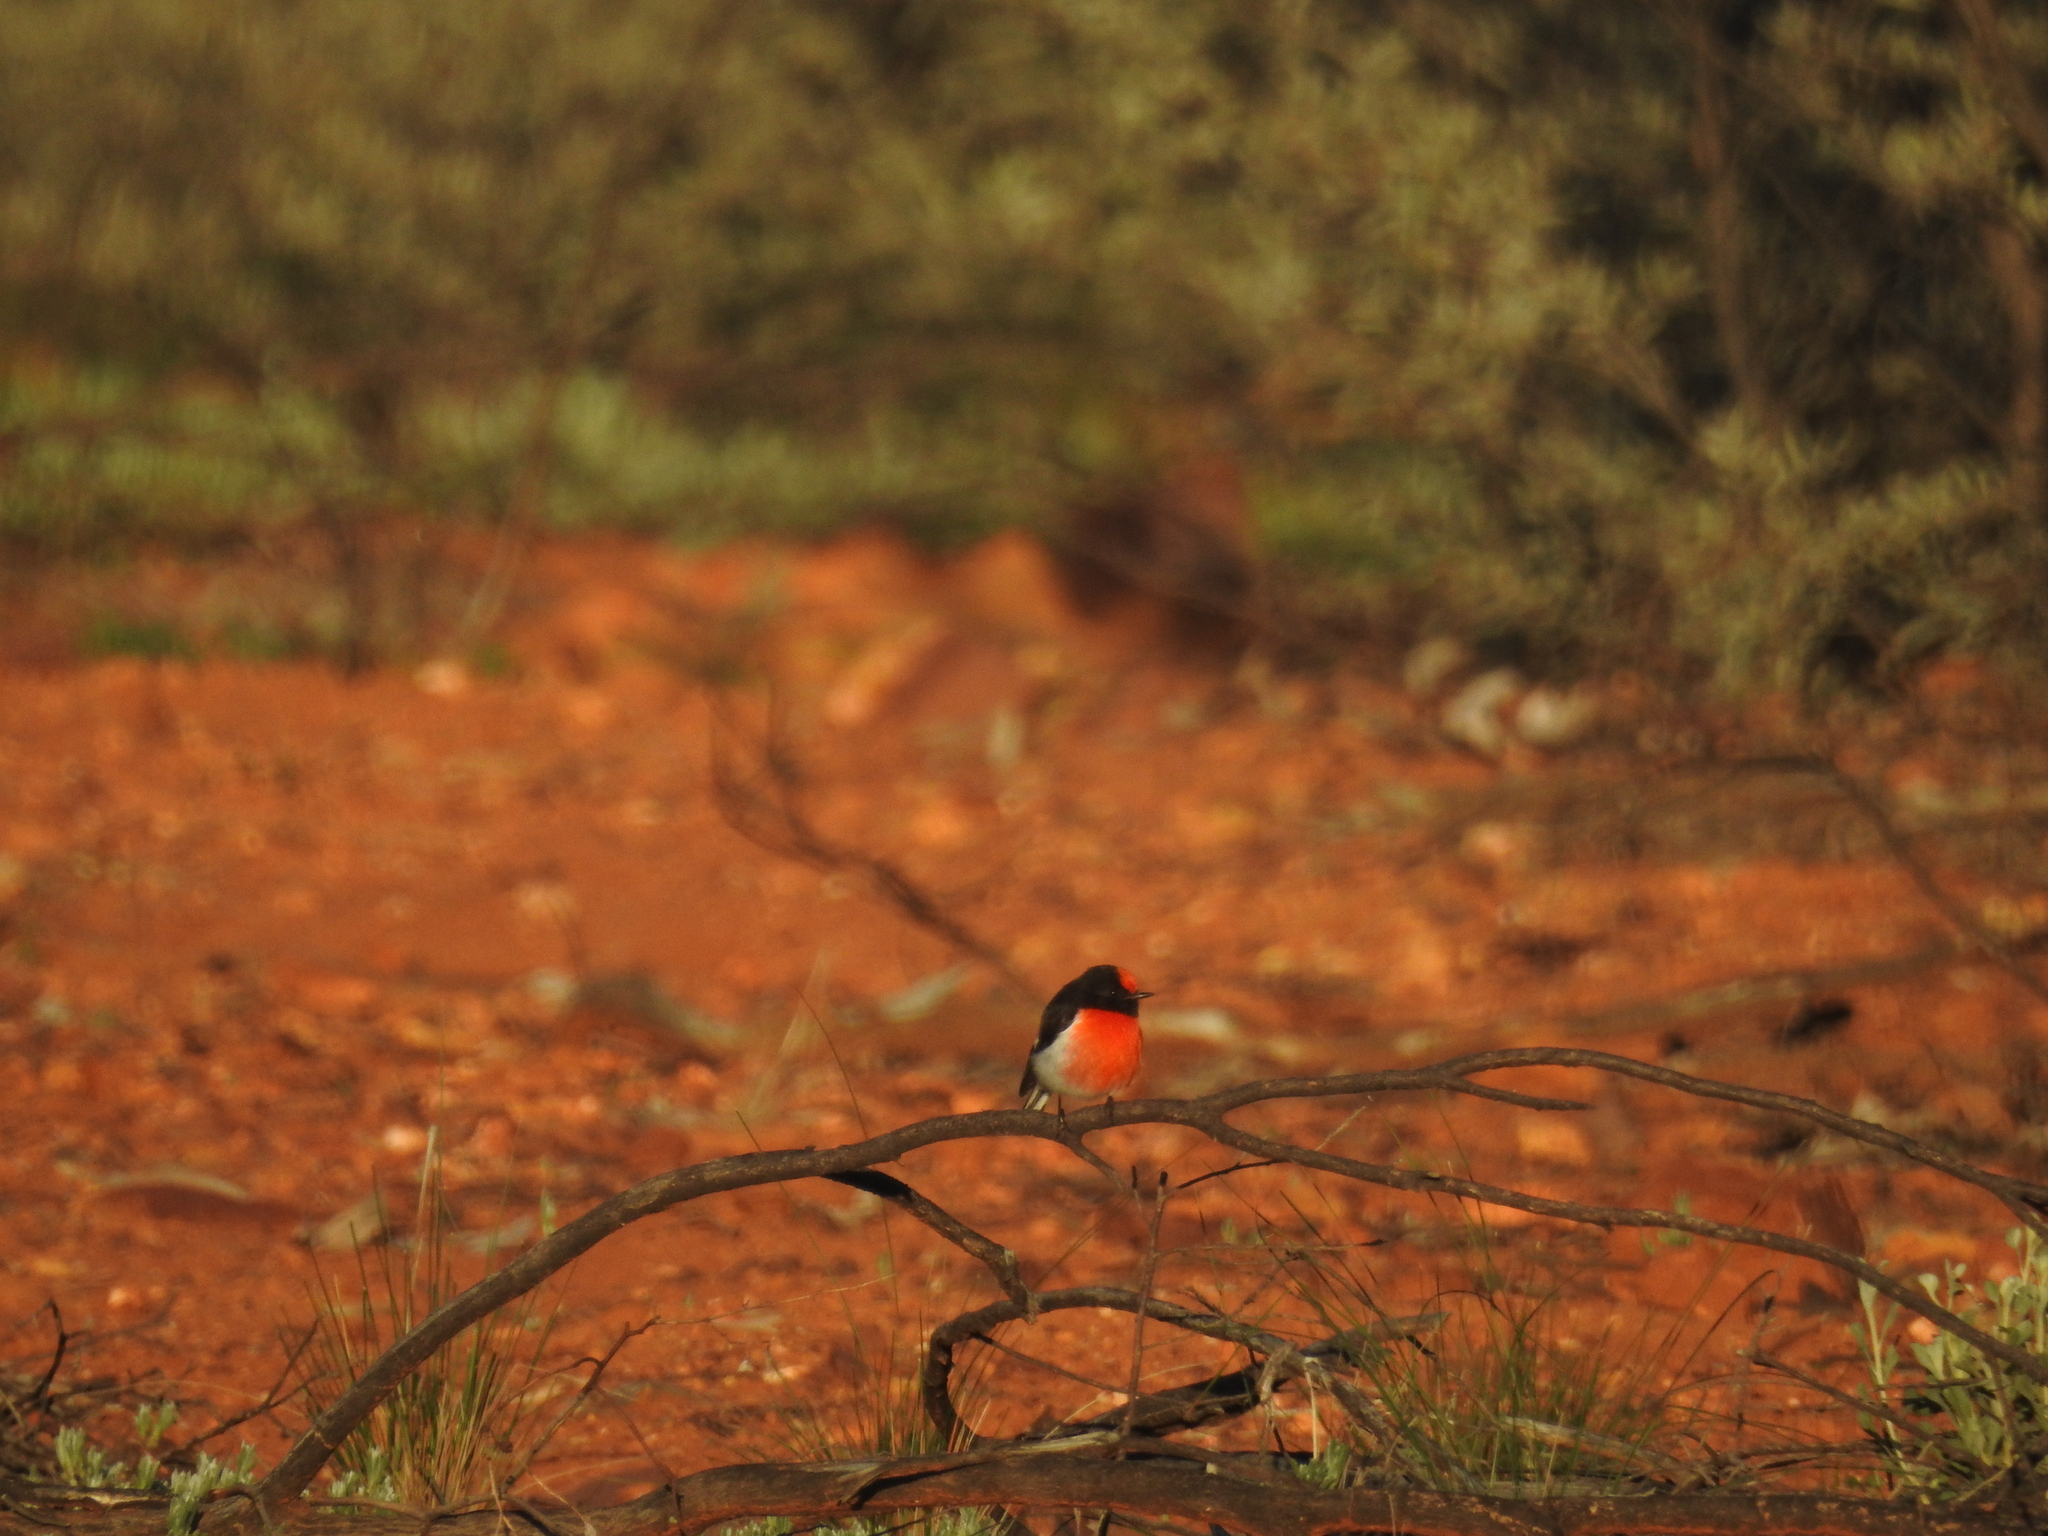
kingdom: Animalia
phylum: Chordata
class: Aves
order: Passeriformes
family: Petroicidae
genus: Petroica
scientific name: Petroica goodenovii
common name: Red-capped robin
